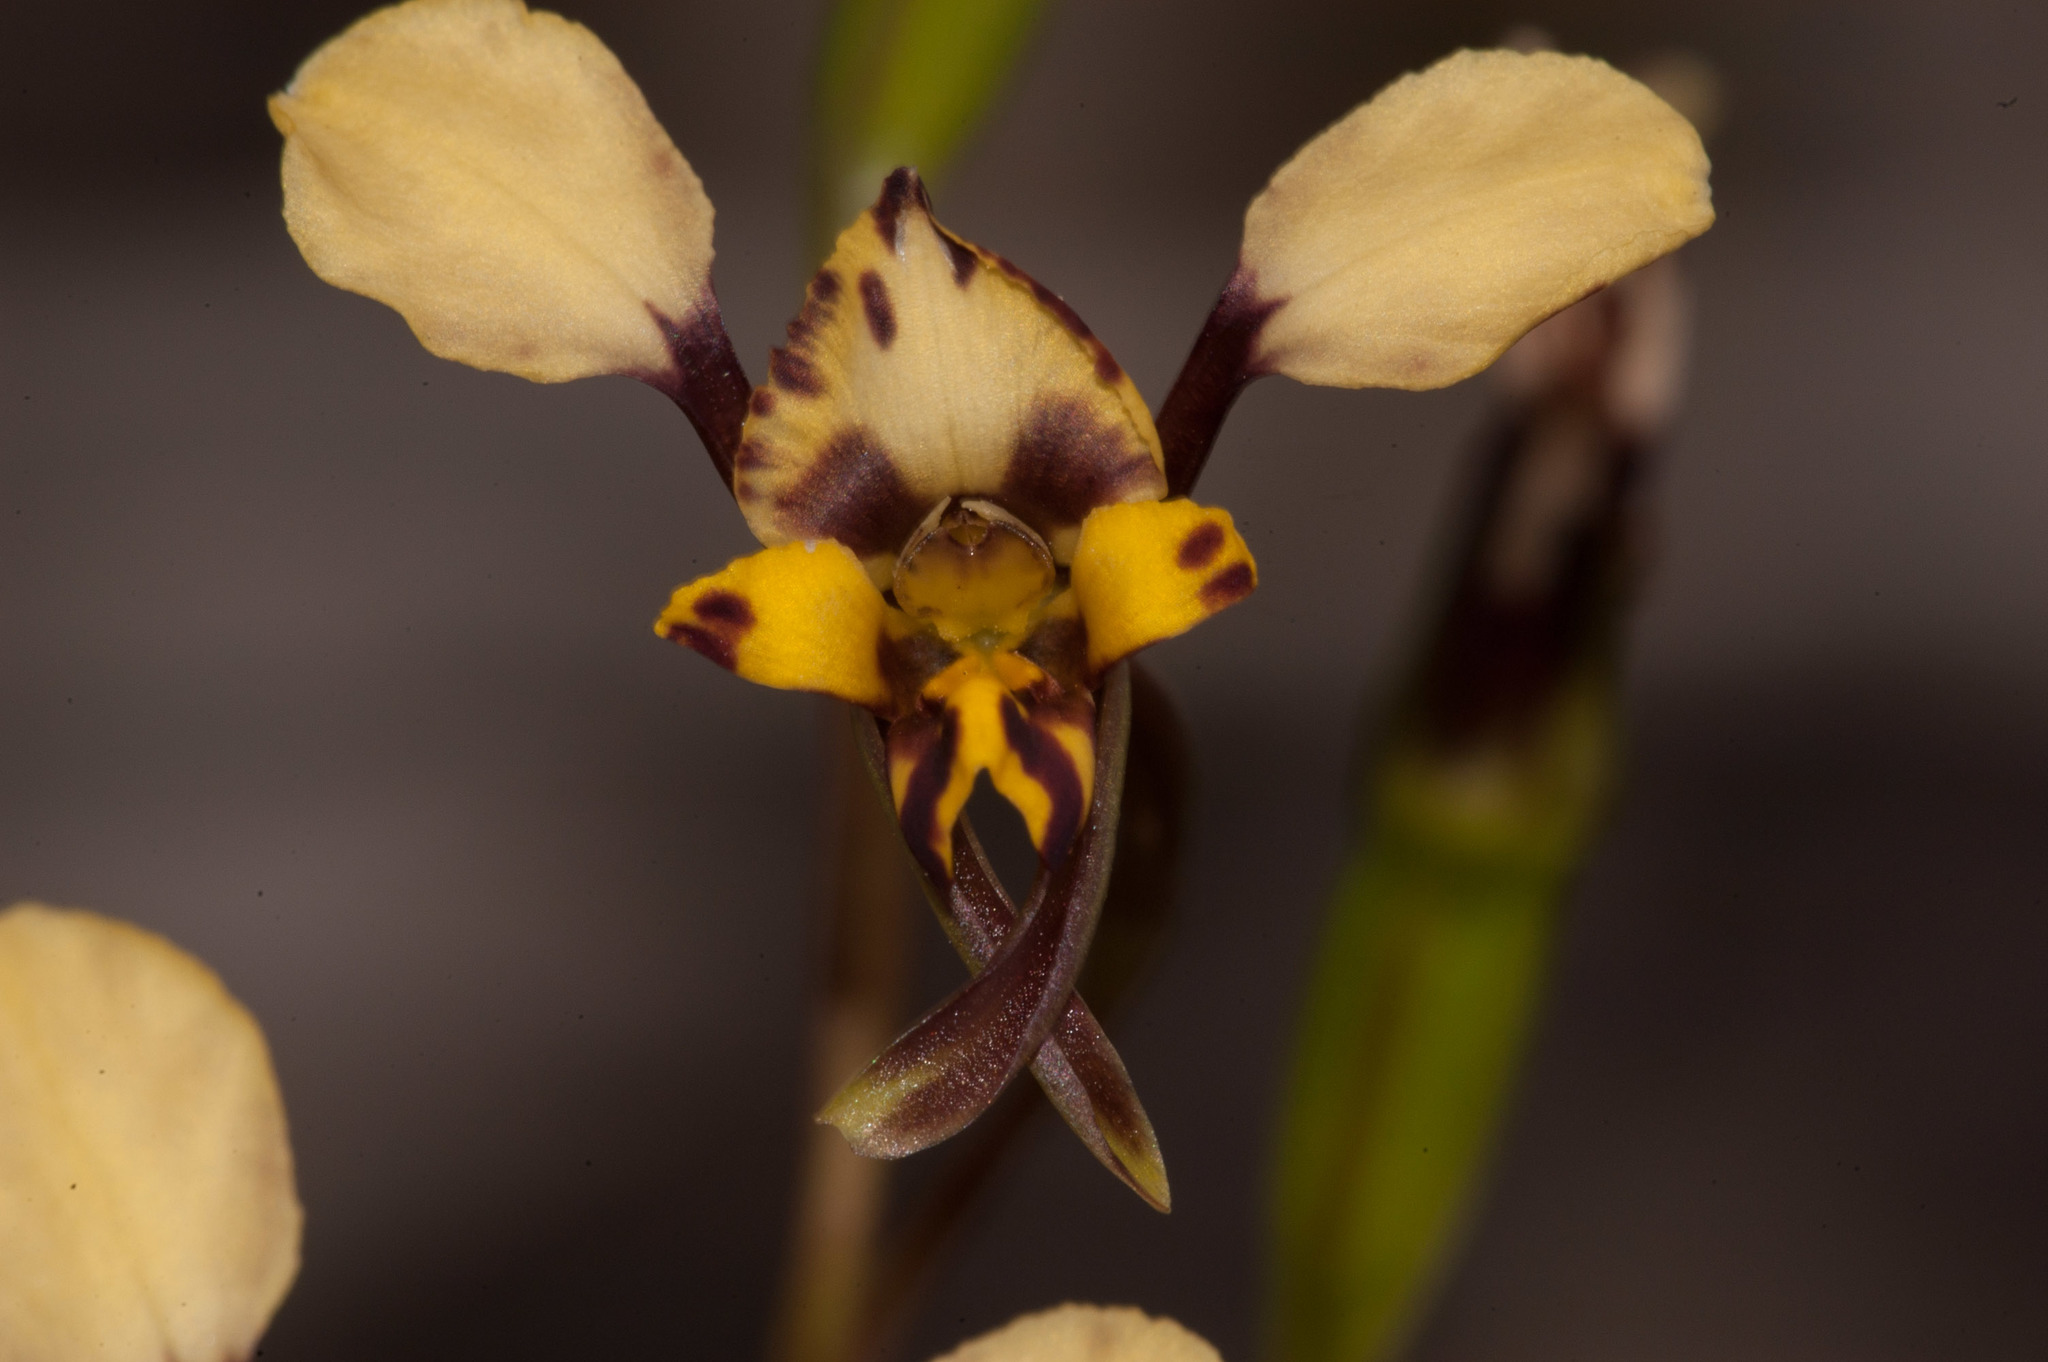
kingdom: Plantae
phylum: Tracheophyta
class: Liliopsida
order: Asparagales
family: Orchidaceae
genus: Diuris
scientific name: Diuris pardina
